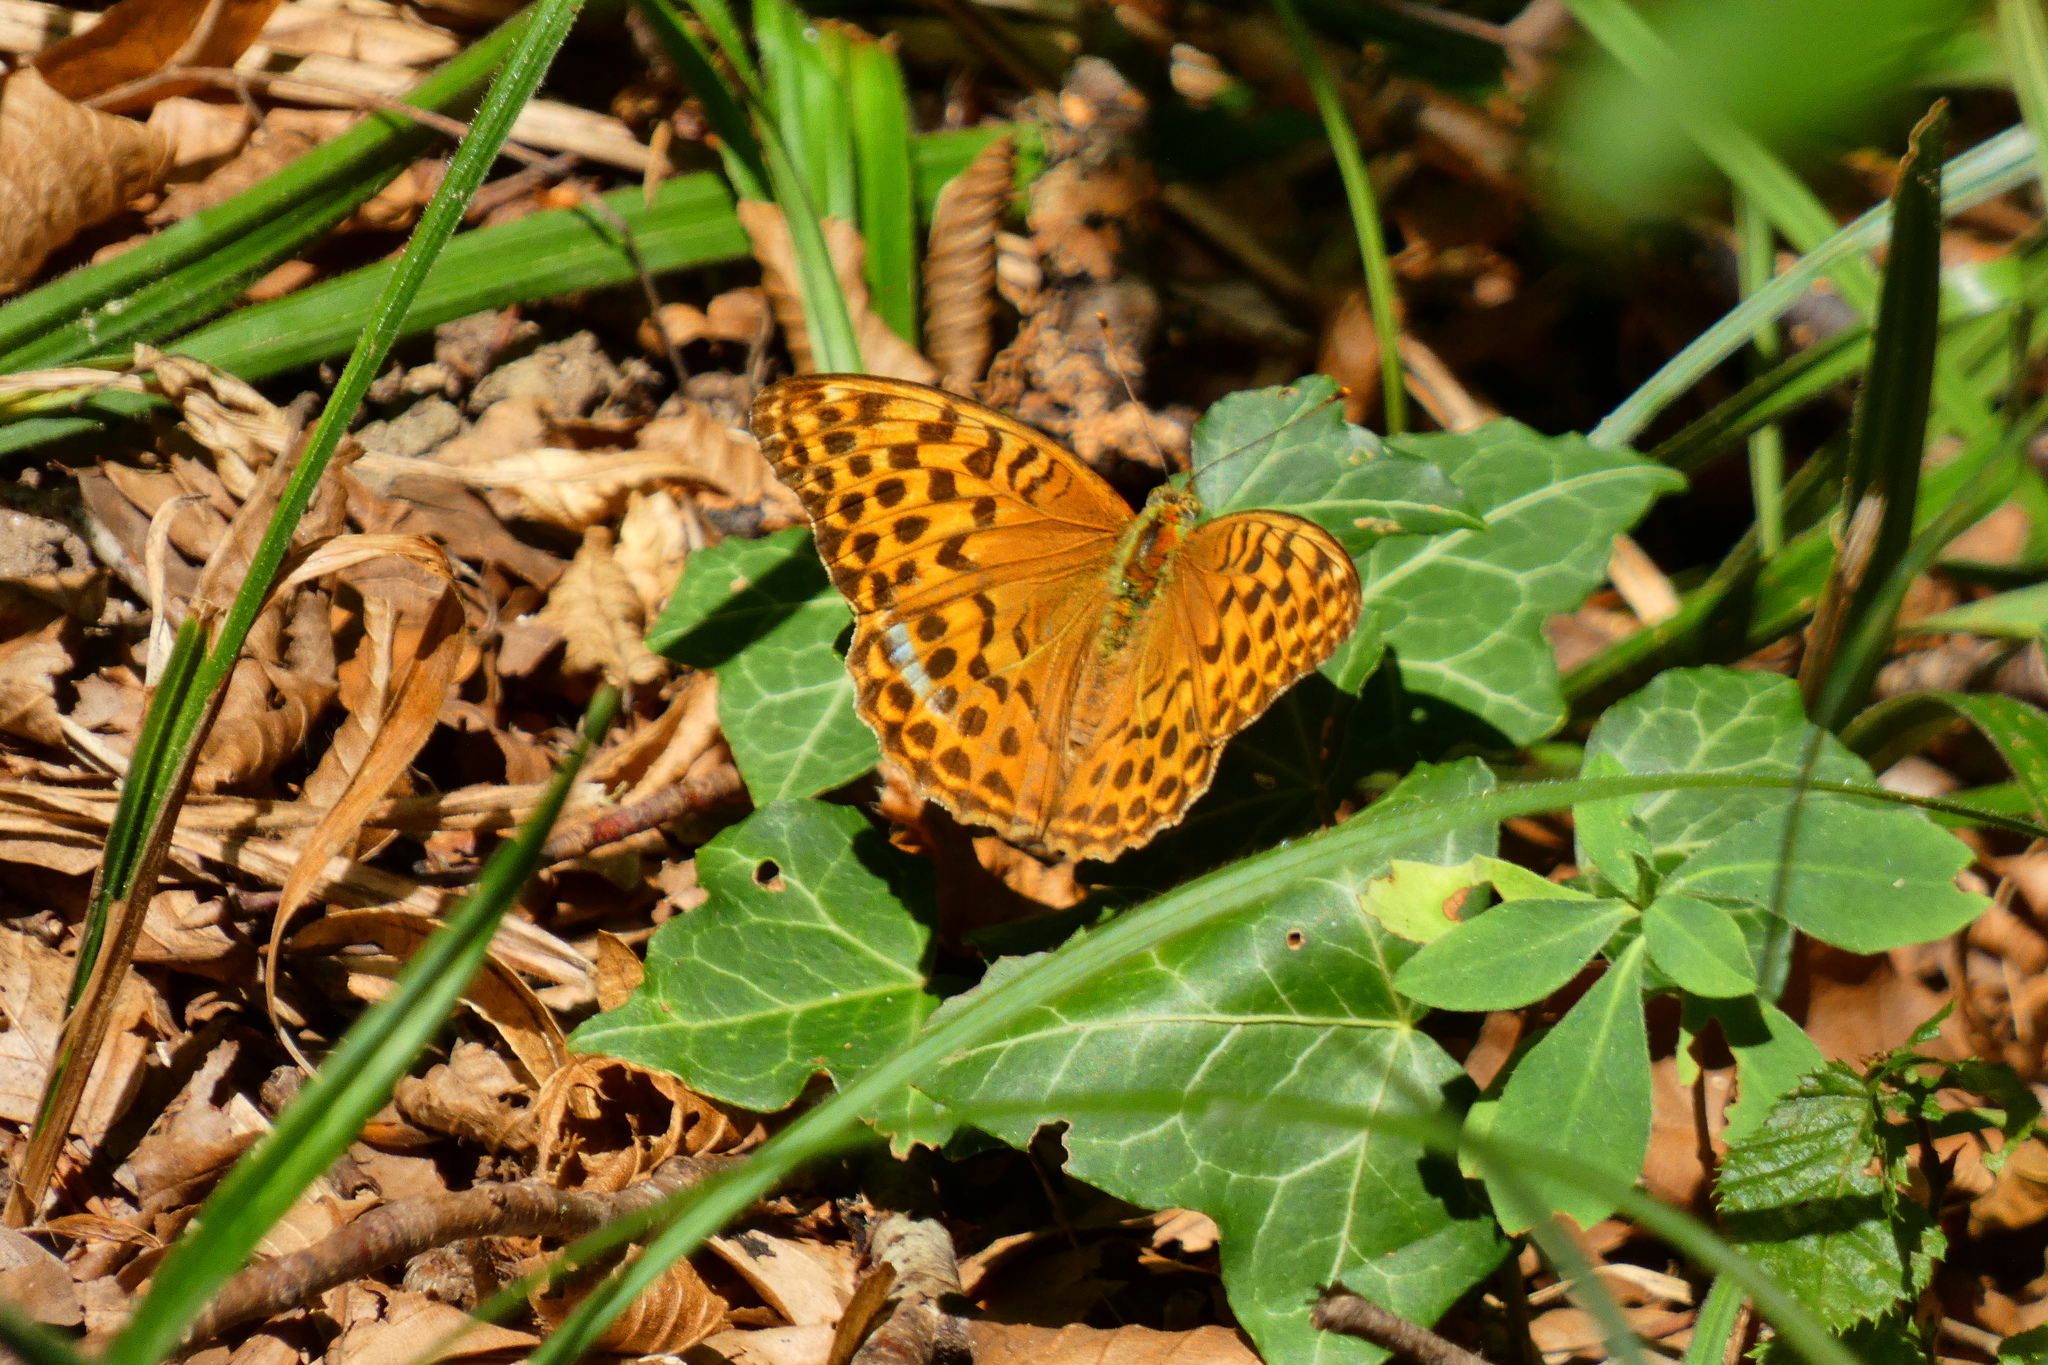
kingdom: Animalia
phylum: Arthropoda
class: Insecta
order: Lepidoptera
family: Nymphalidae
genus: Argynnis
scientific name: Argynnis paphia
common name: Silver-washed fritillary
